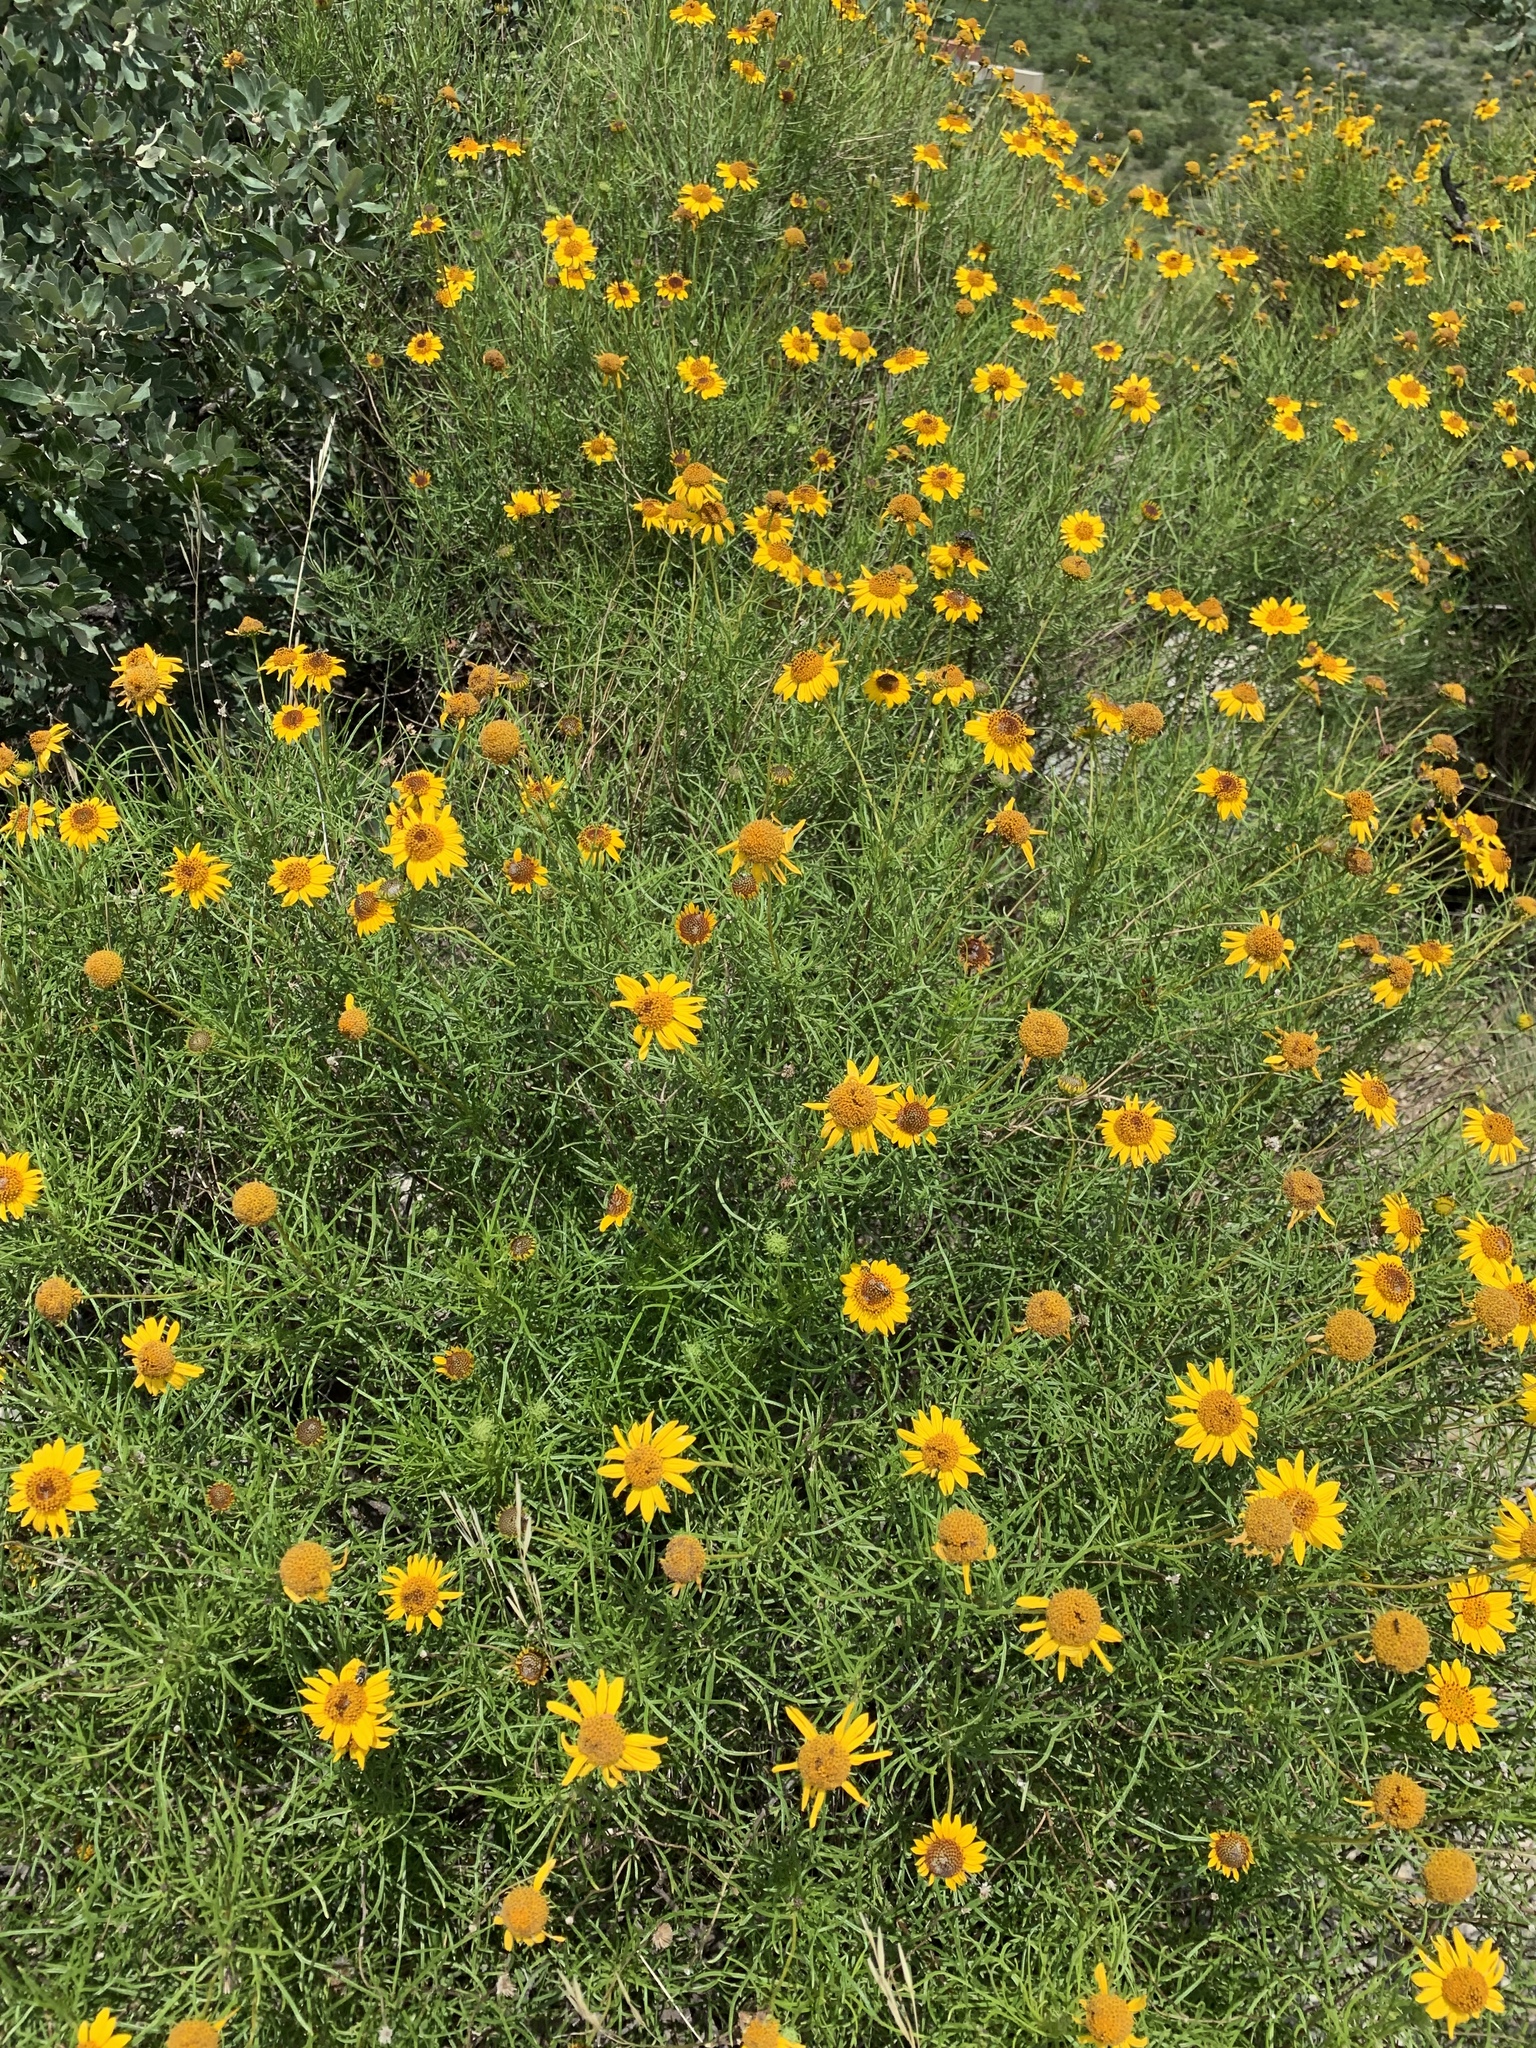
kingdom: Plantae
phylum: Tracheophyta
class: Magnoliopsida
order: Asterales
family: Asteraceae
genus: Sidneya
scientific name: Sidneya tenuifolia
